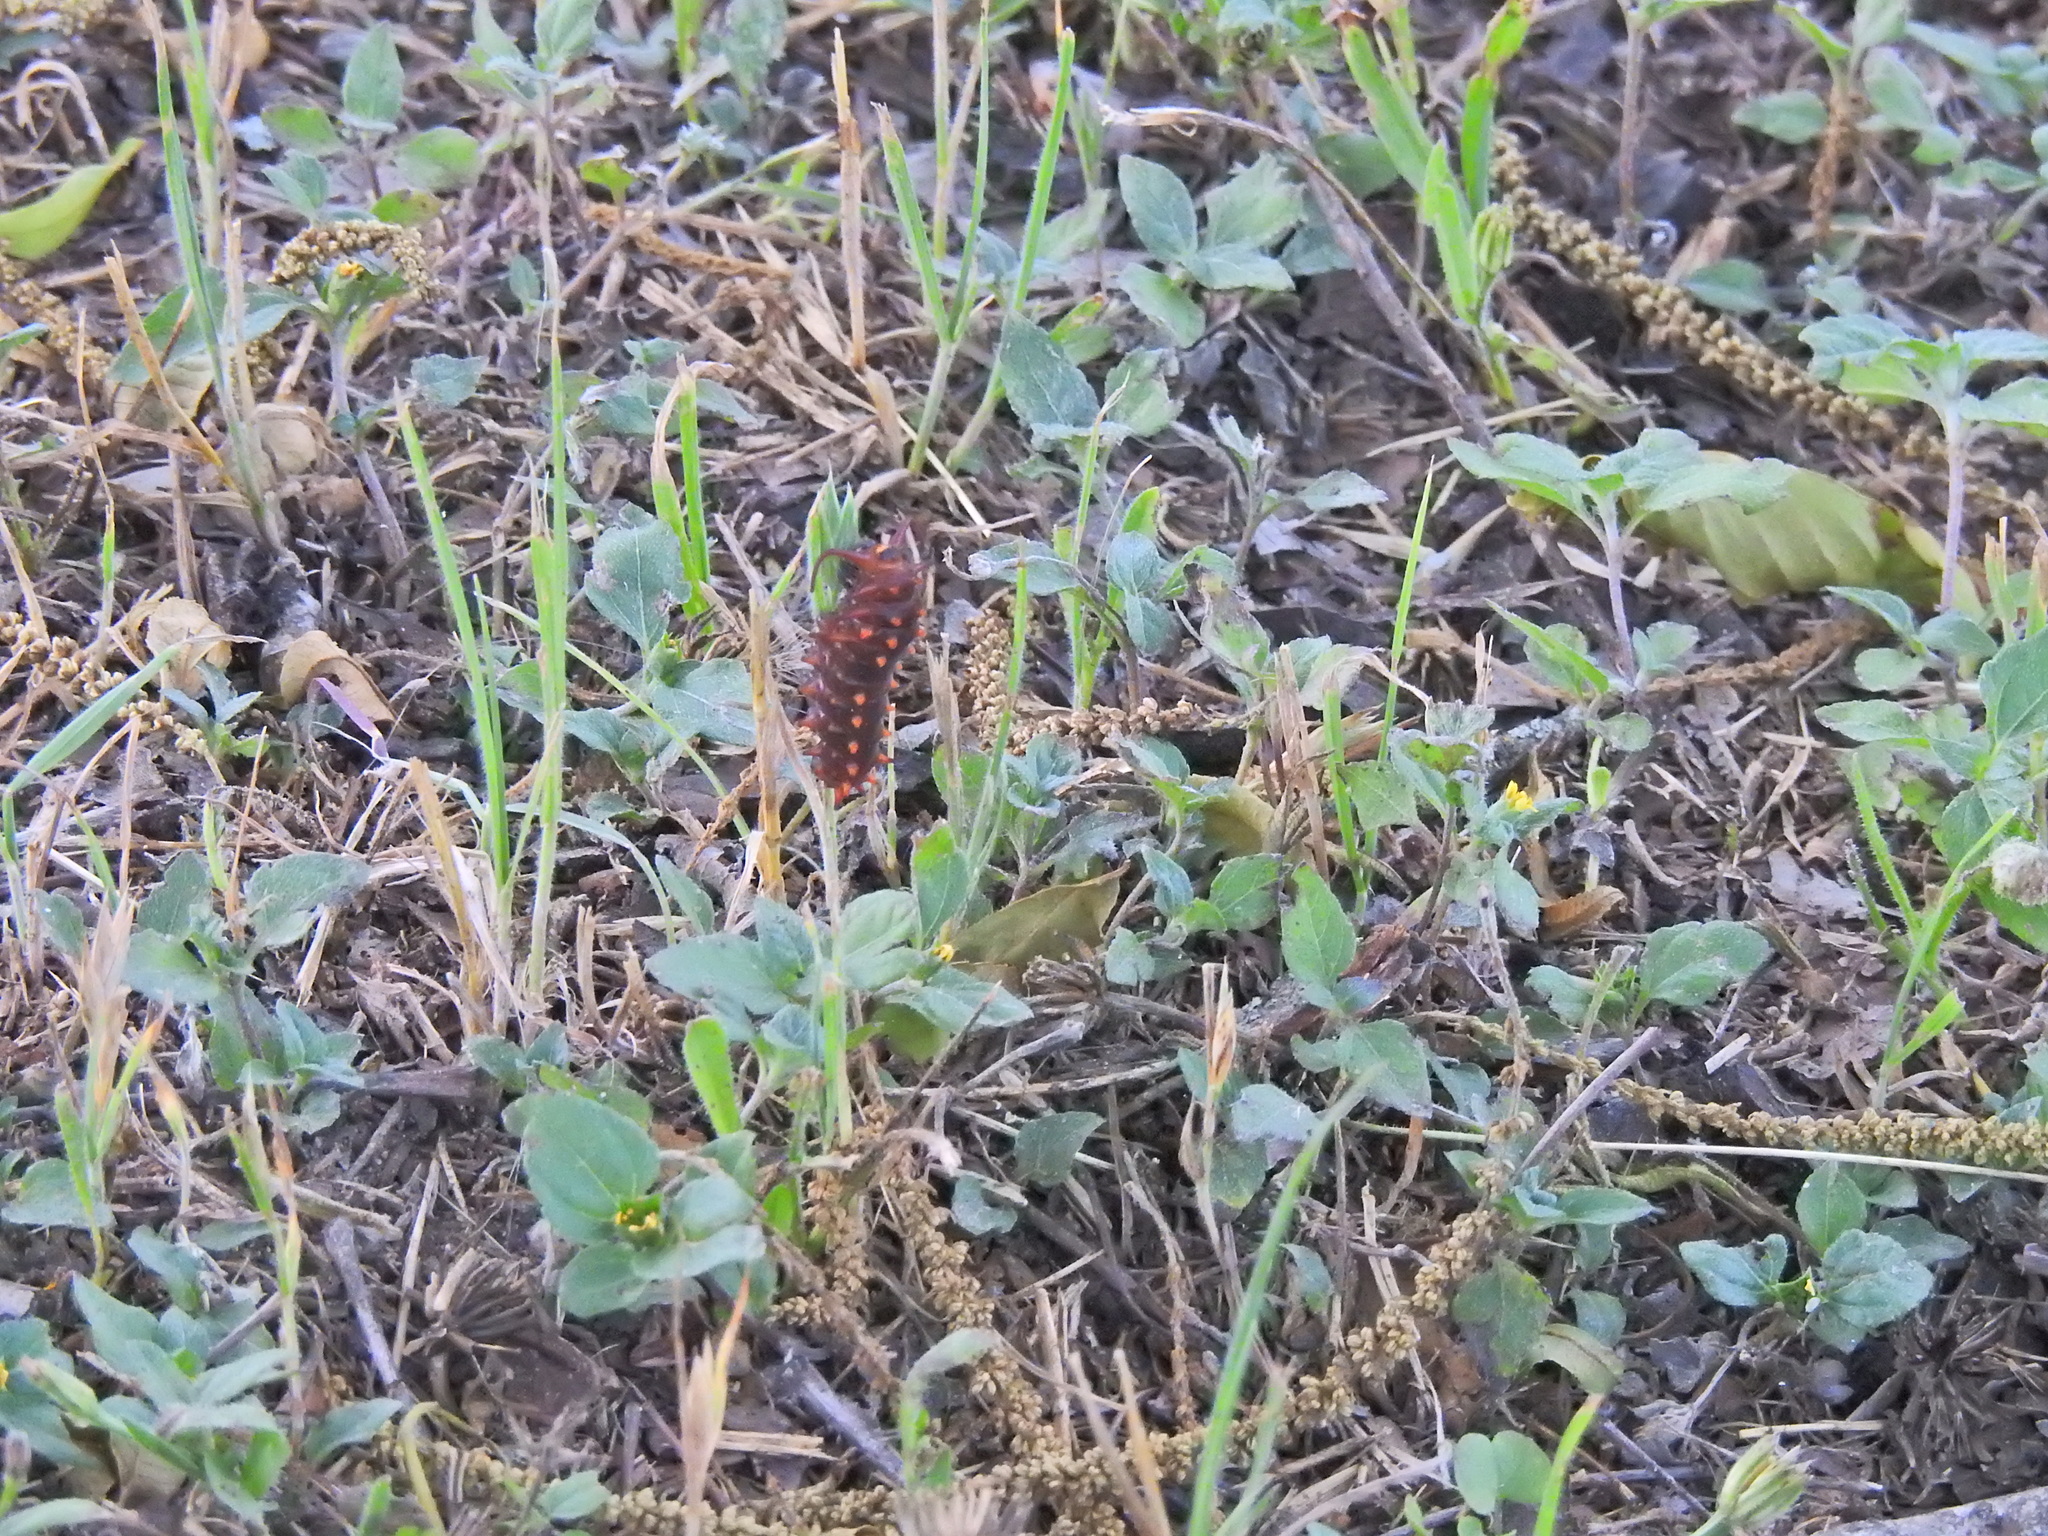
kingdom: Animalia
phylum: Arthropoda
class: Insecta
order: Lepidoptera
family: Papilionidae
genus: Battus
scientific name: Battus philenor
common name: Pipevine swallowtail
